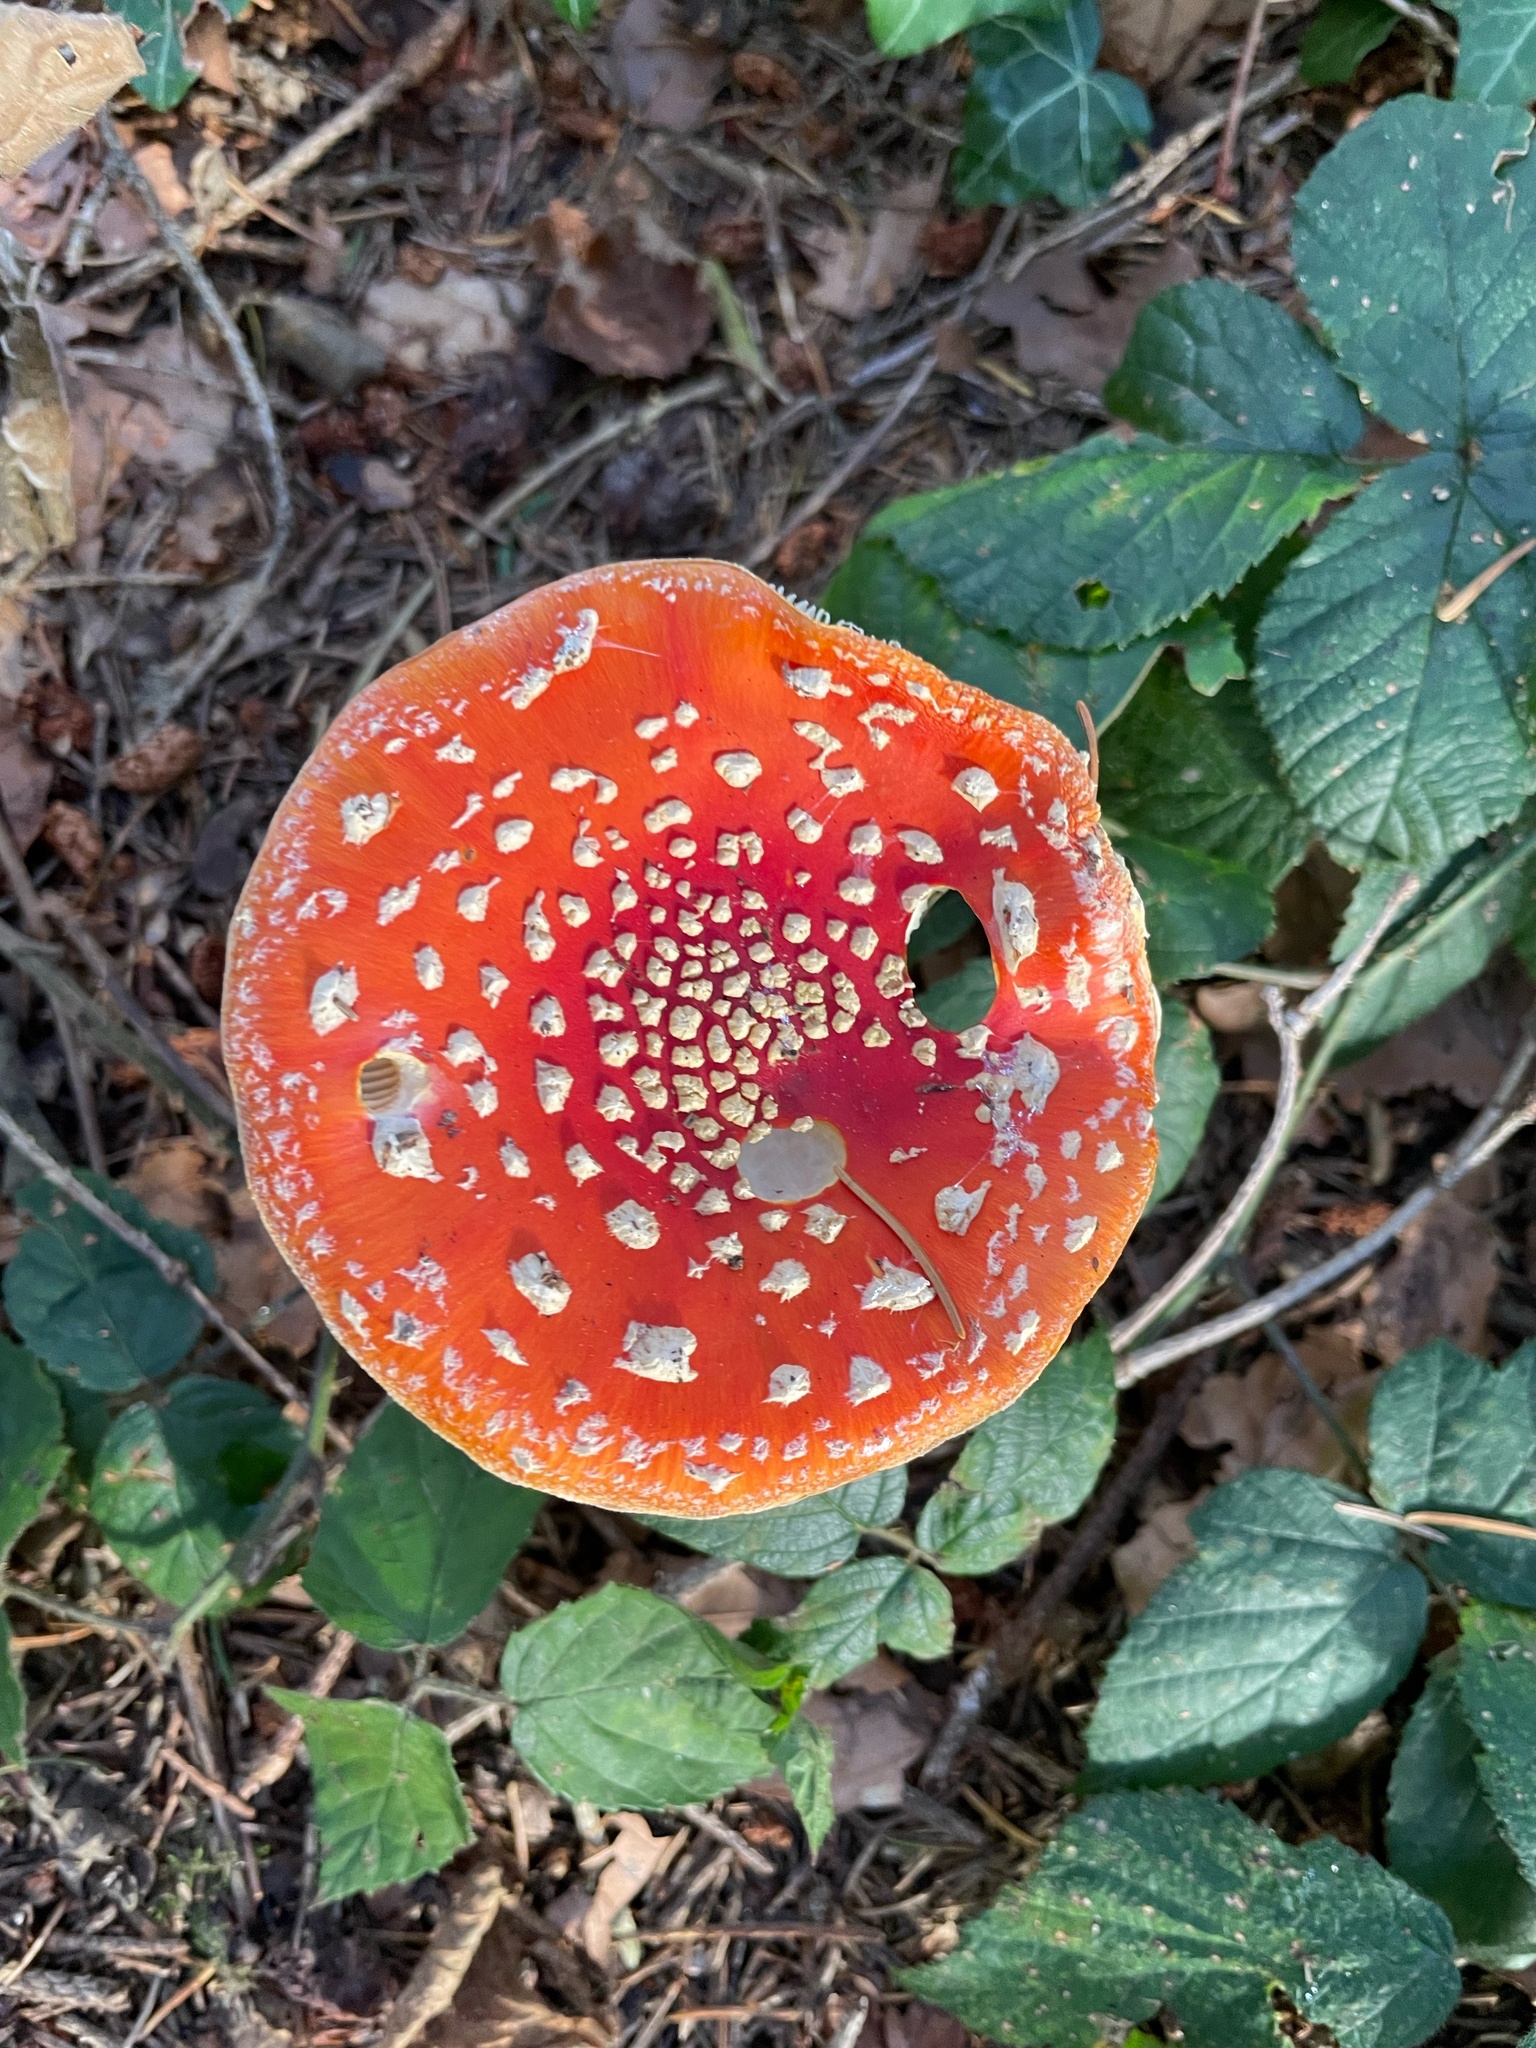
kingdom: Fungi
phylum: Basidiomycota
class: Agaricomycetes
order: Agaricales
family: Amanitaceae
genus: Amanita
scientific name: Amanita muscaria
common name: Fly agaric
